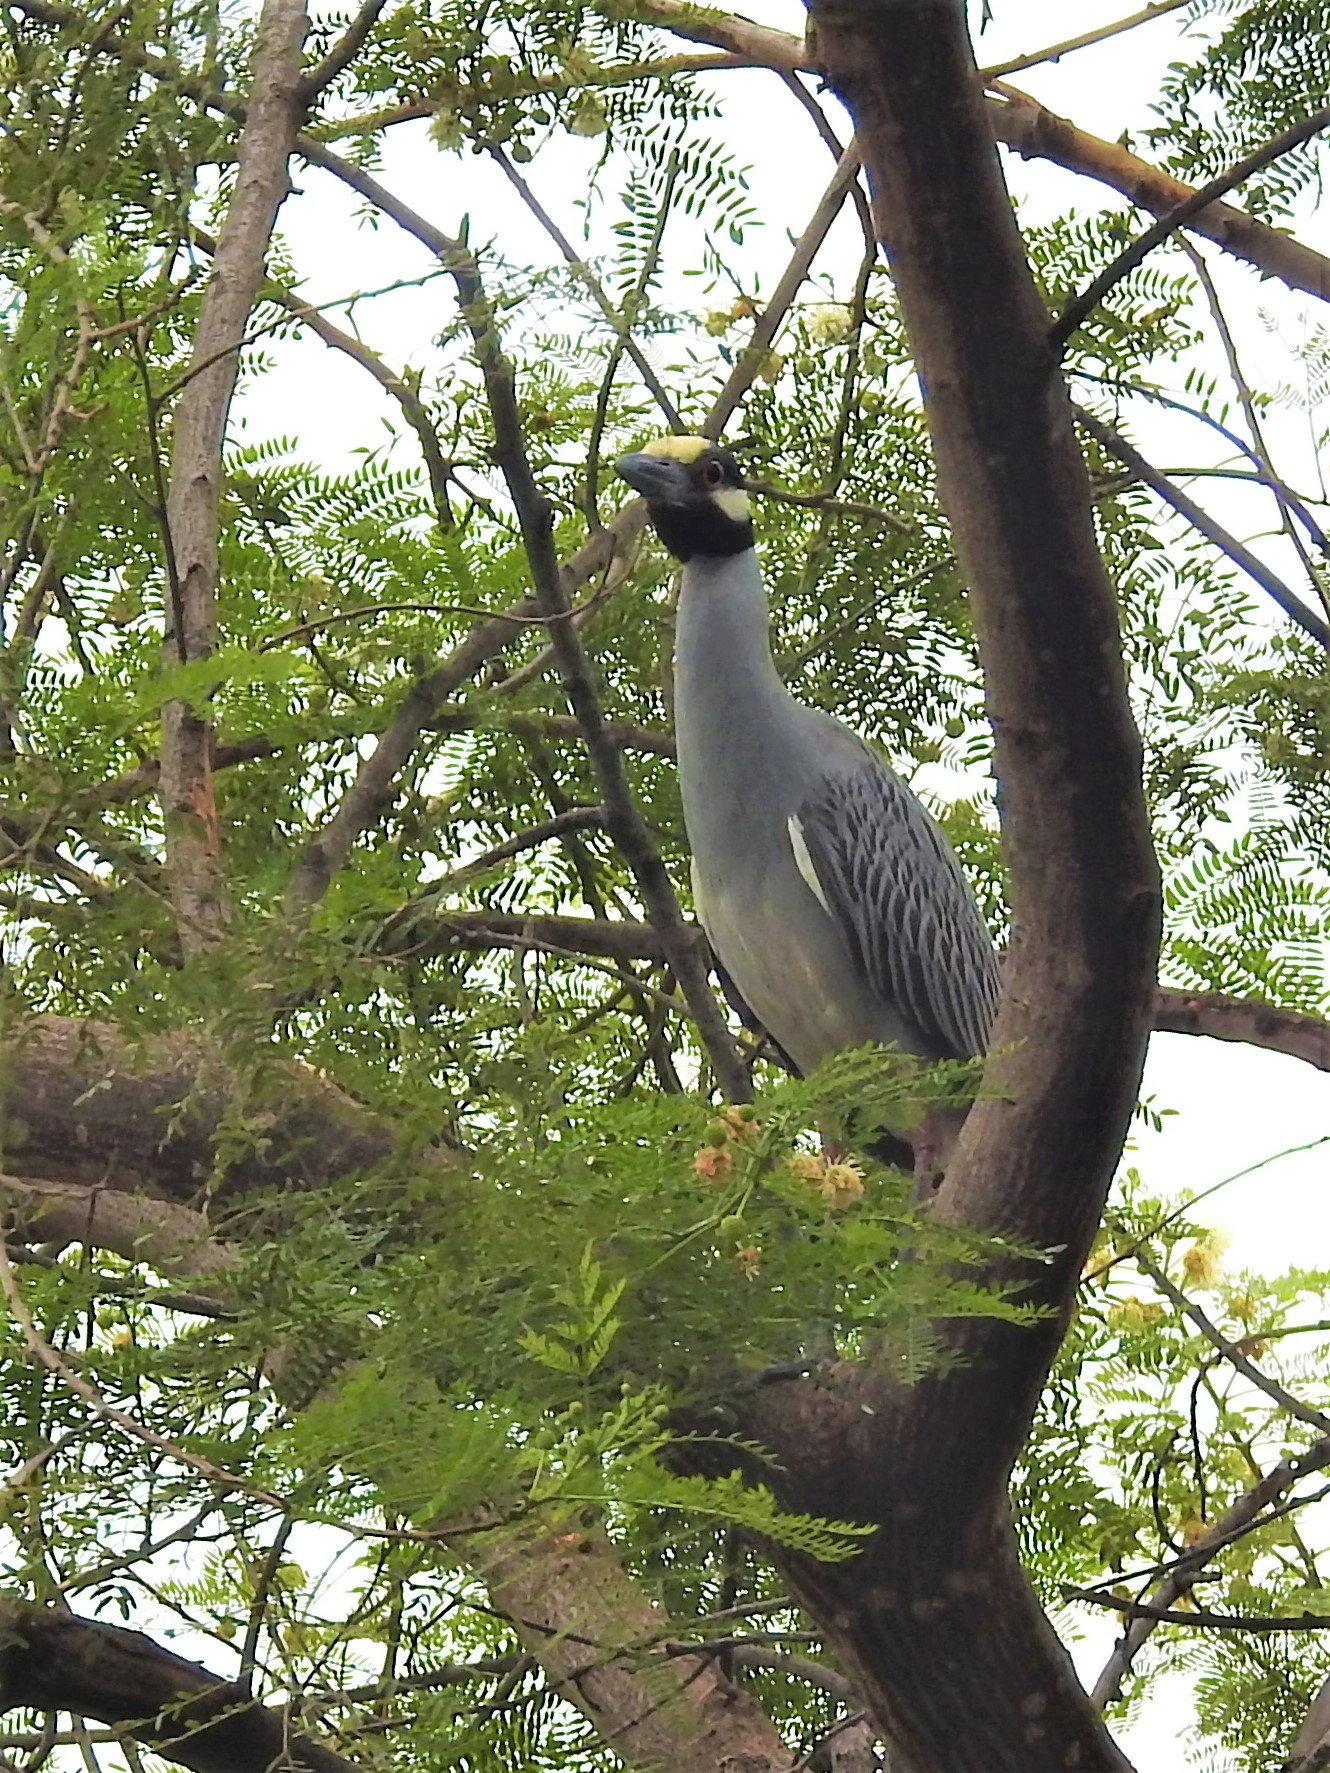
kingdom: Animalia
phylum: Chordata
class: Aves
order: Pelecaniformes
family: Ardeidae
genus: Nyctanassa
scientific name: Nyctanassa violacea
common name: Yellow-crowned night heron
